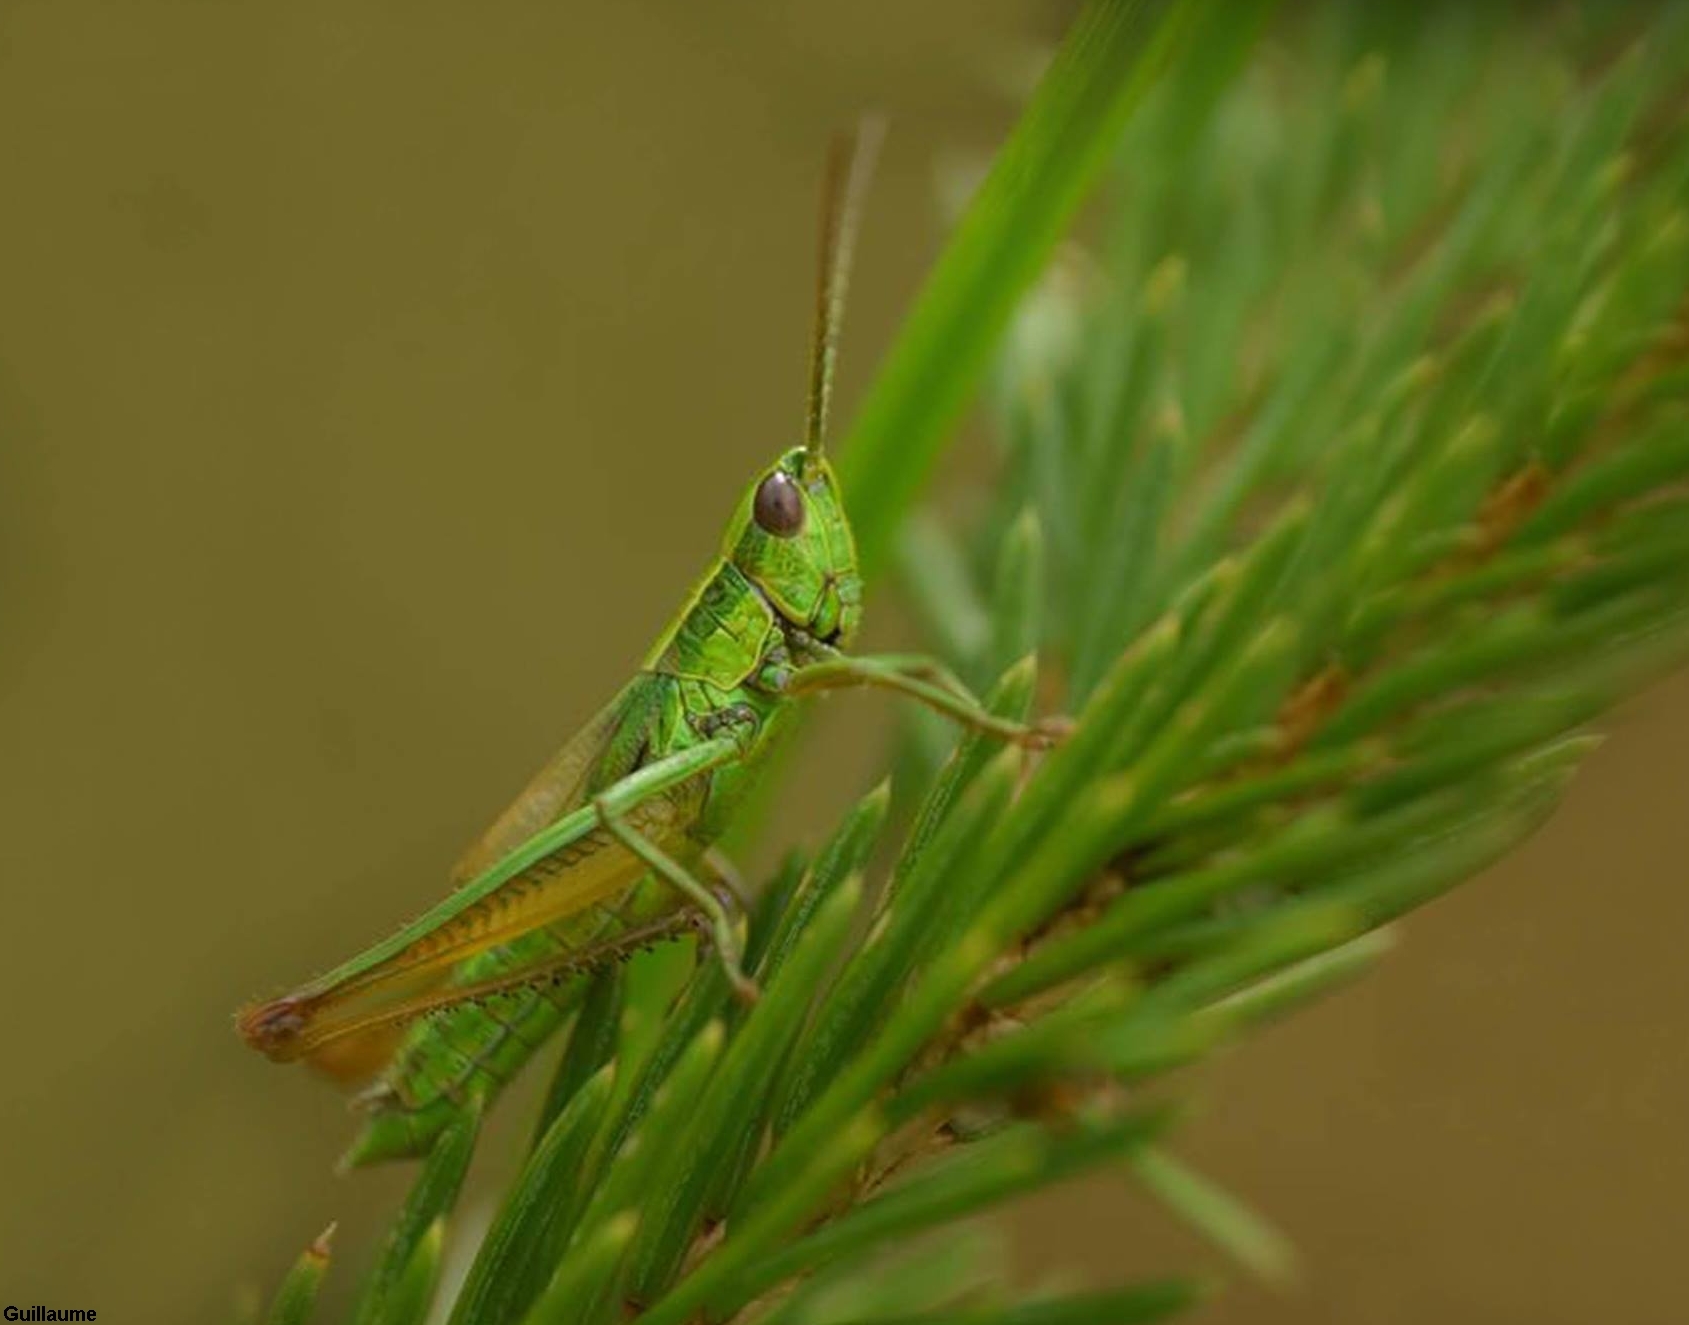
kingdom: Animalia
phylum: Arthropoda
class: Insecta
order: Orthoptera
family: Acrididae
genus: Euthystira
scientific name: Euthystira brachyptera
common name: Small gold grasshopper
